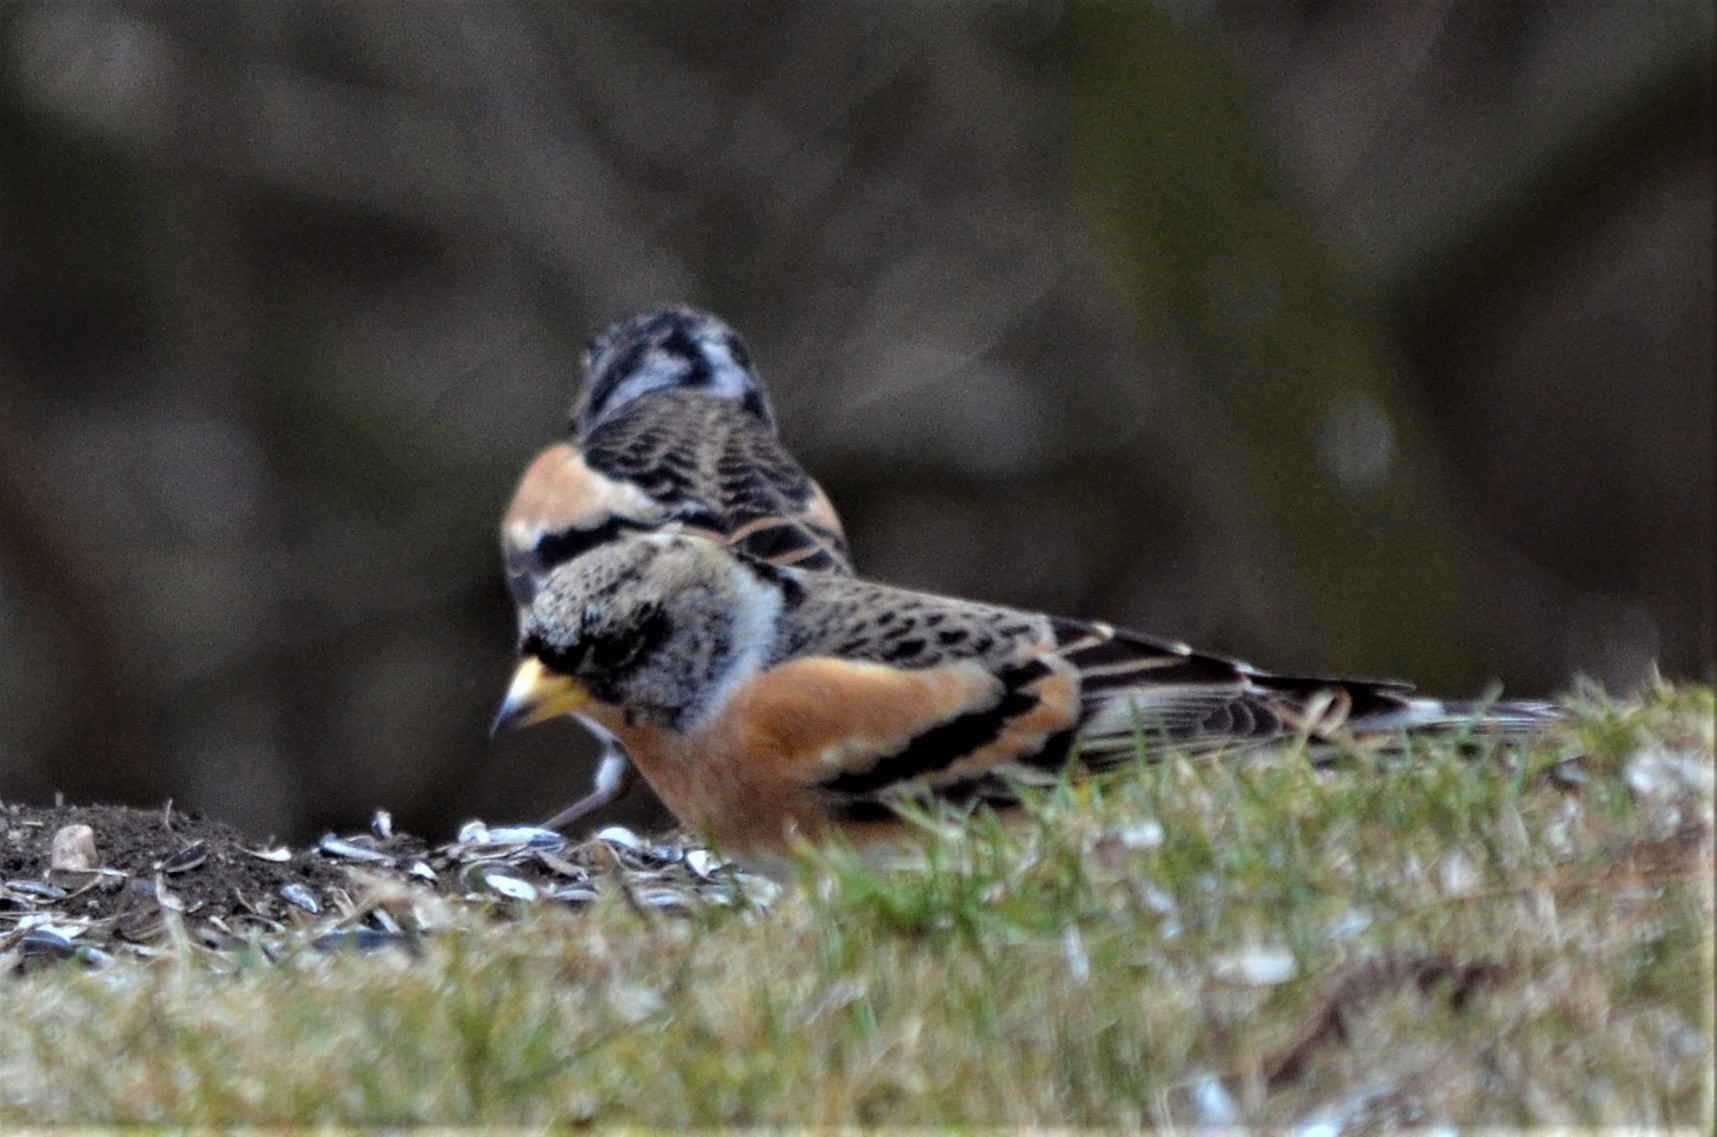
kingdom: Animalia
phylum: Chordata
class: Aves
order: Passeriformes
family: Fringillidae
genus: Fringilla
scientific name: Fringilla montifringilla
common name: Brambling
